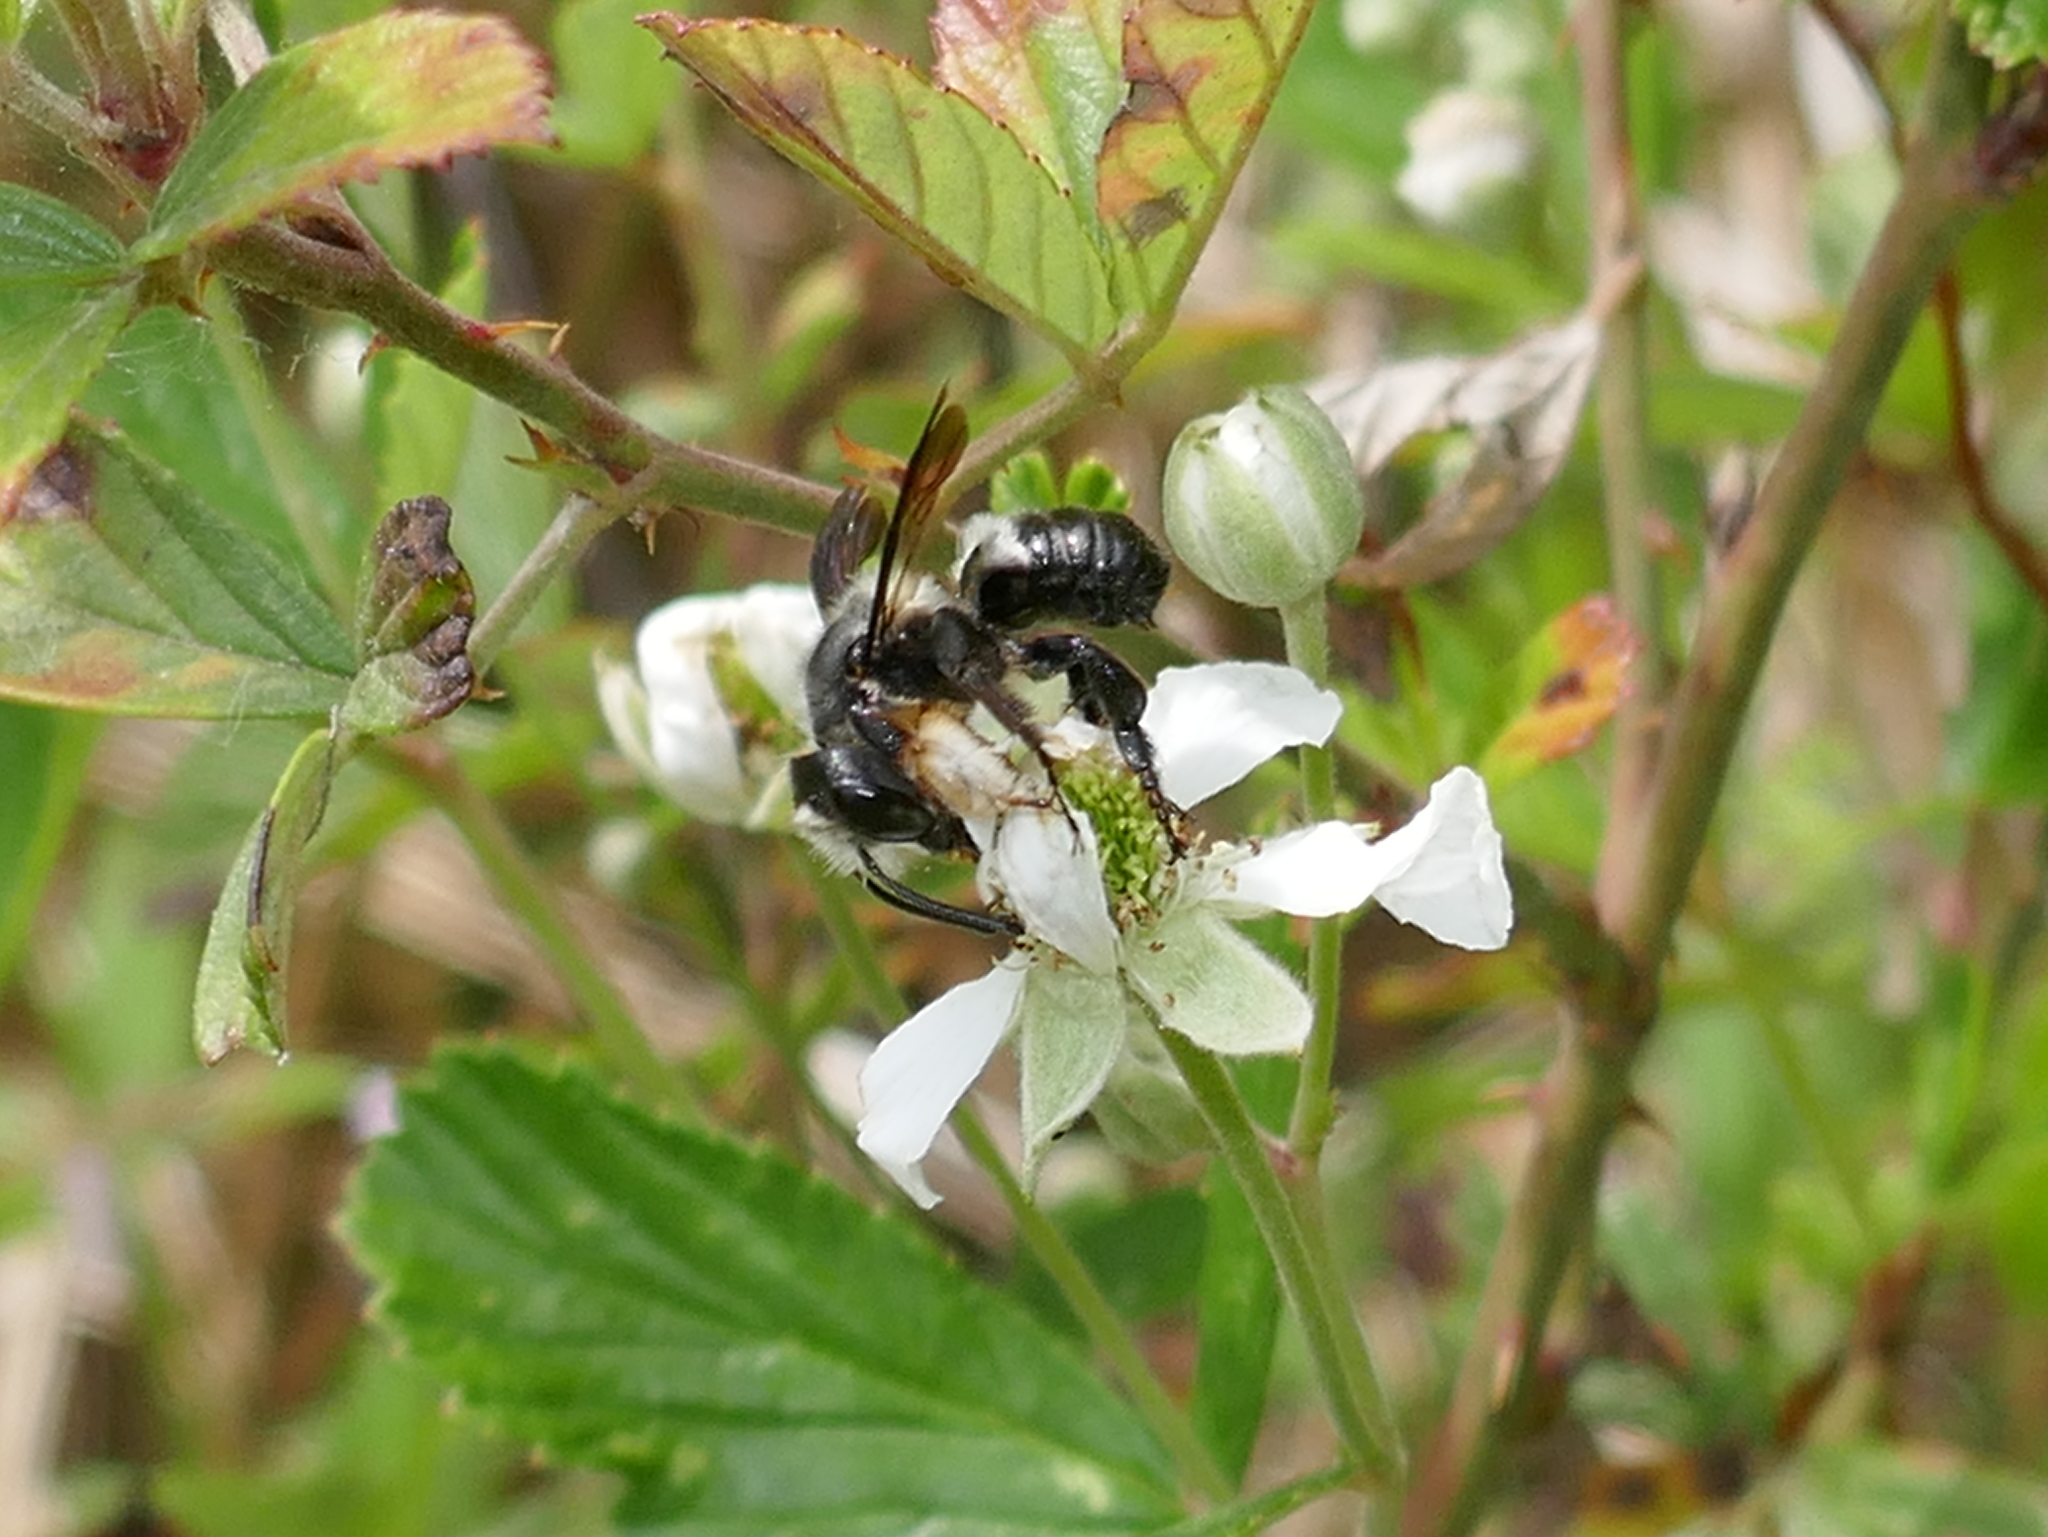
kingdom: Animalia
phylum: Arthropoda
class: Insecta
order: Hymenoptera
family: Megachilidae
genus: Megachile
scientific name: Megachile xylocopoides
